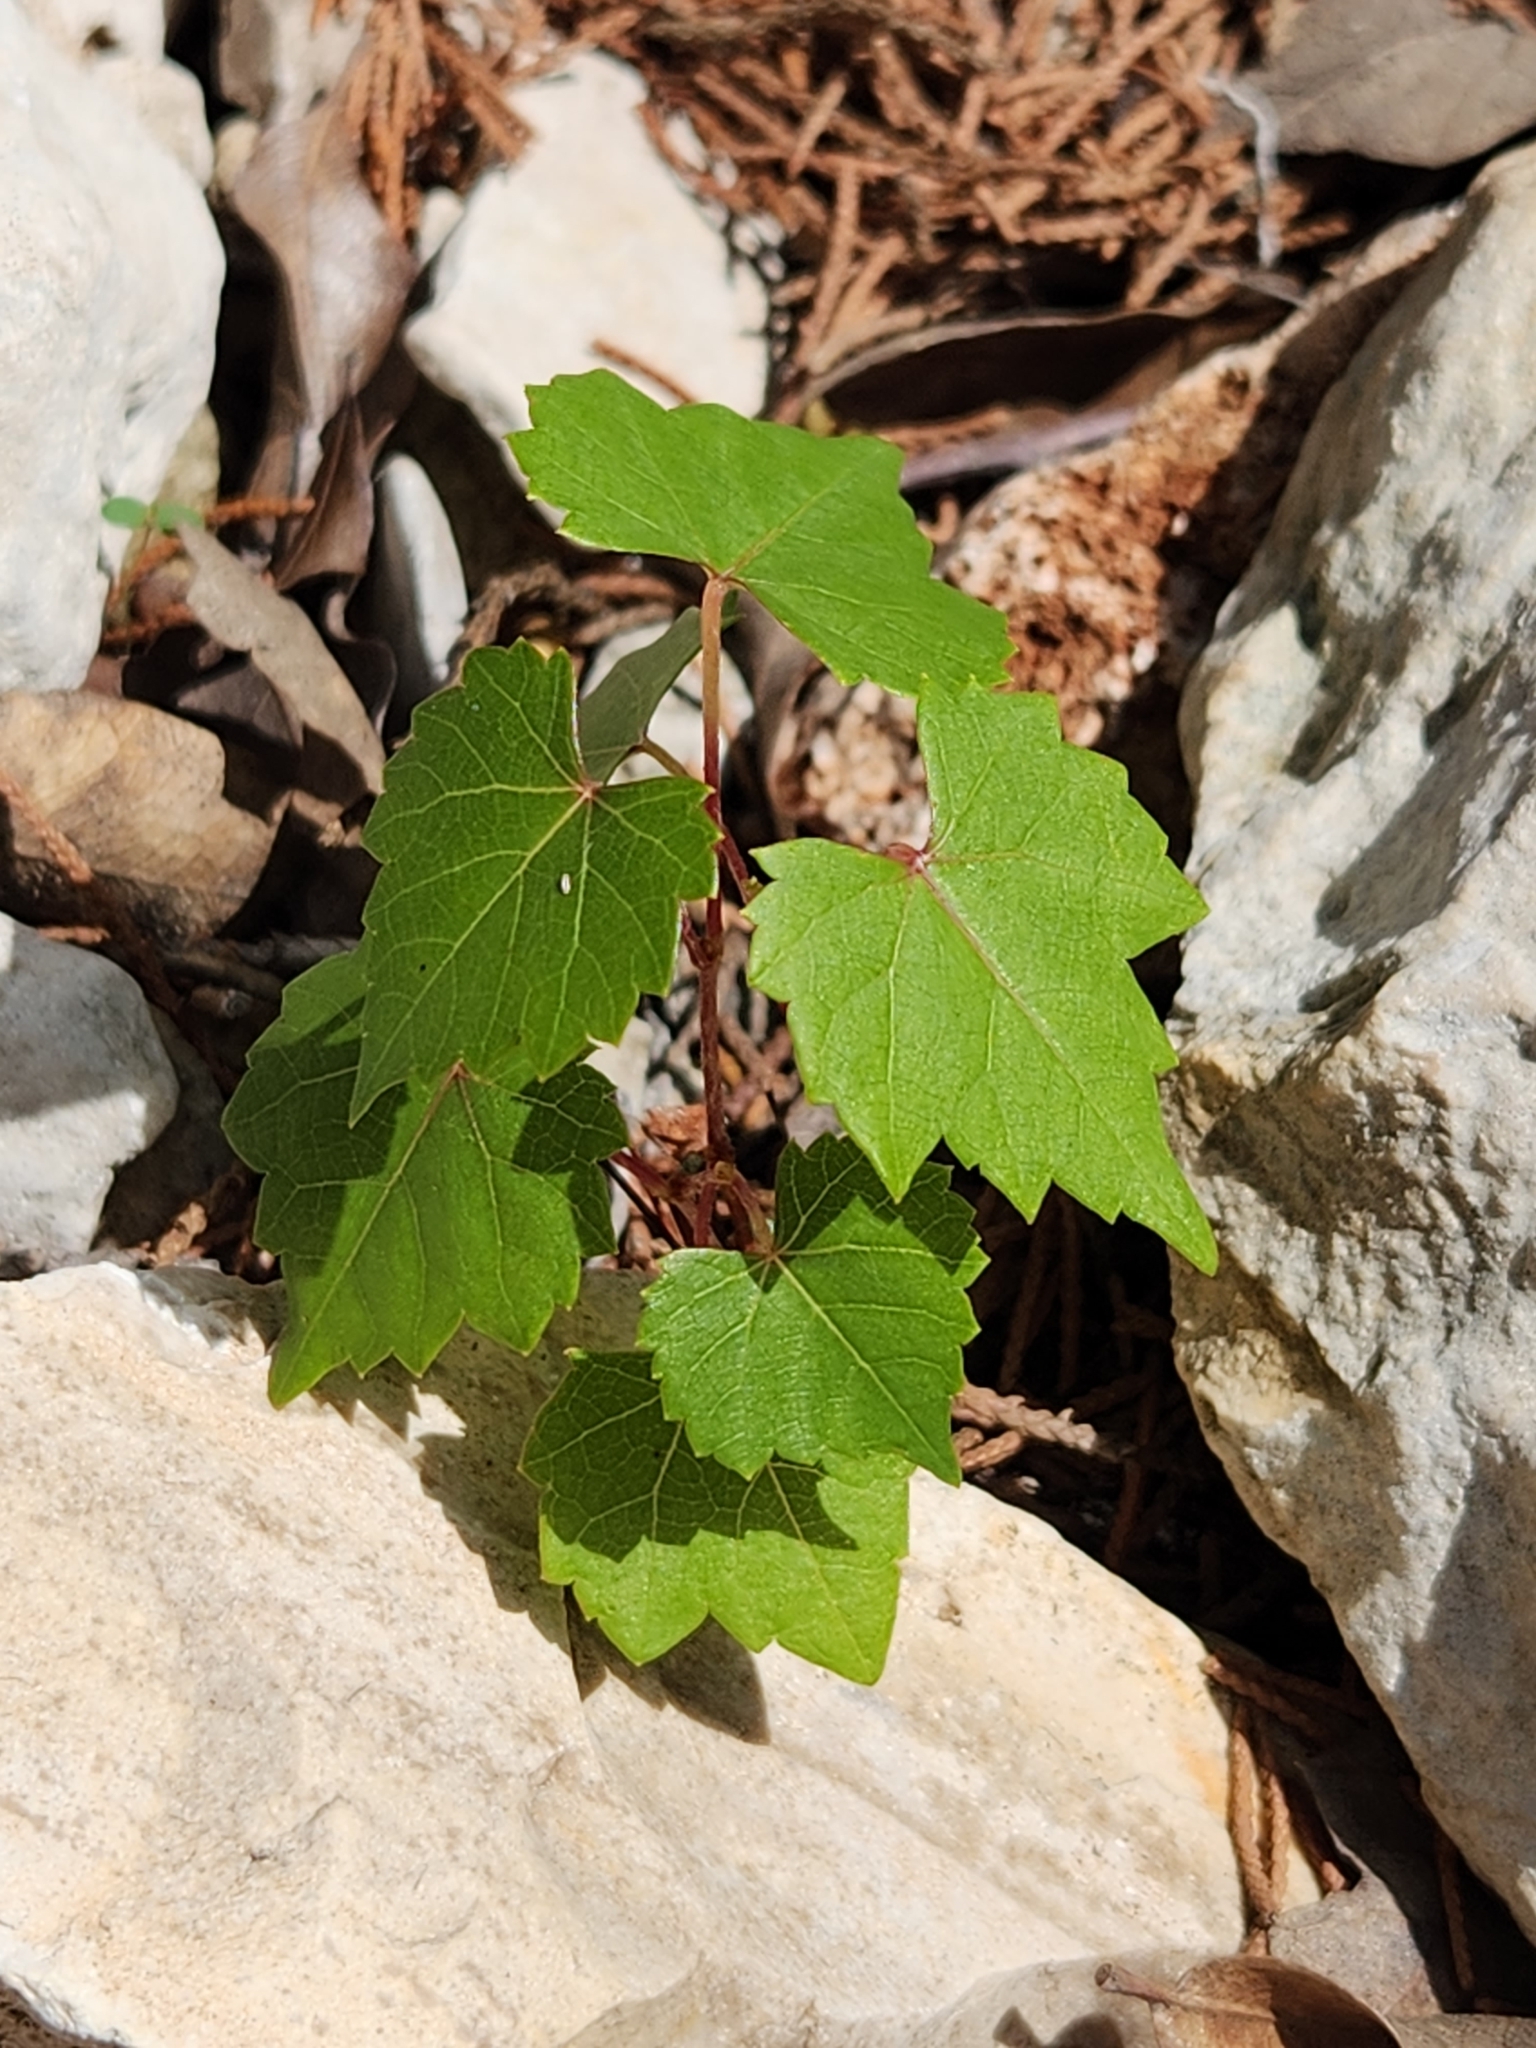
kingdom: Plantae
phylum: Tracheophyta
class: Magnoliopsida
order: Vitales
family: Vitaceae
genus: Vitis
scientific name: Vitis monticola
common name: Mountain grape
